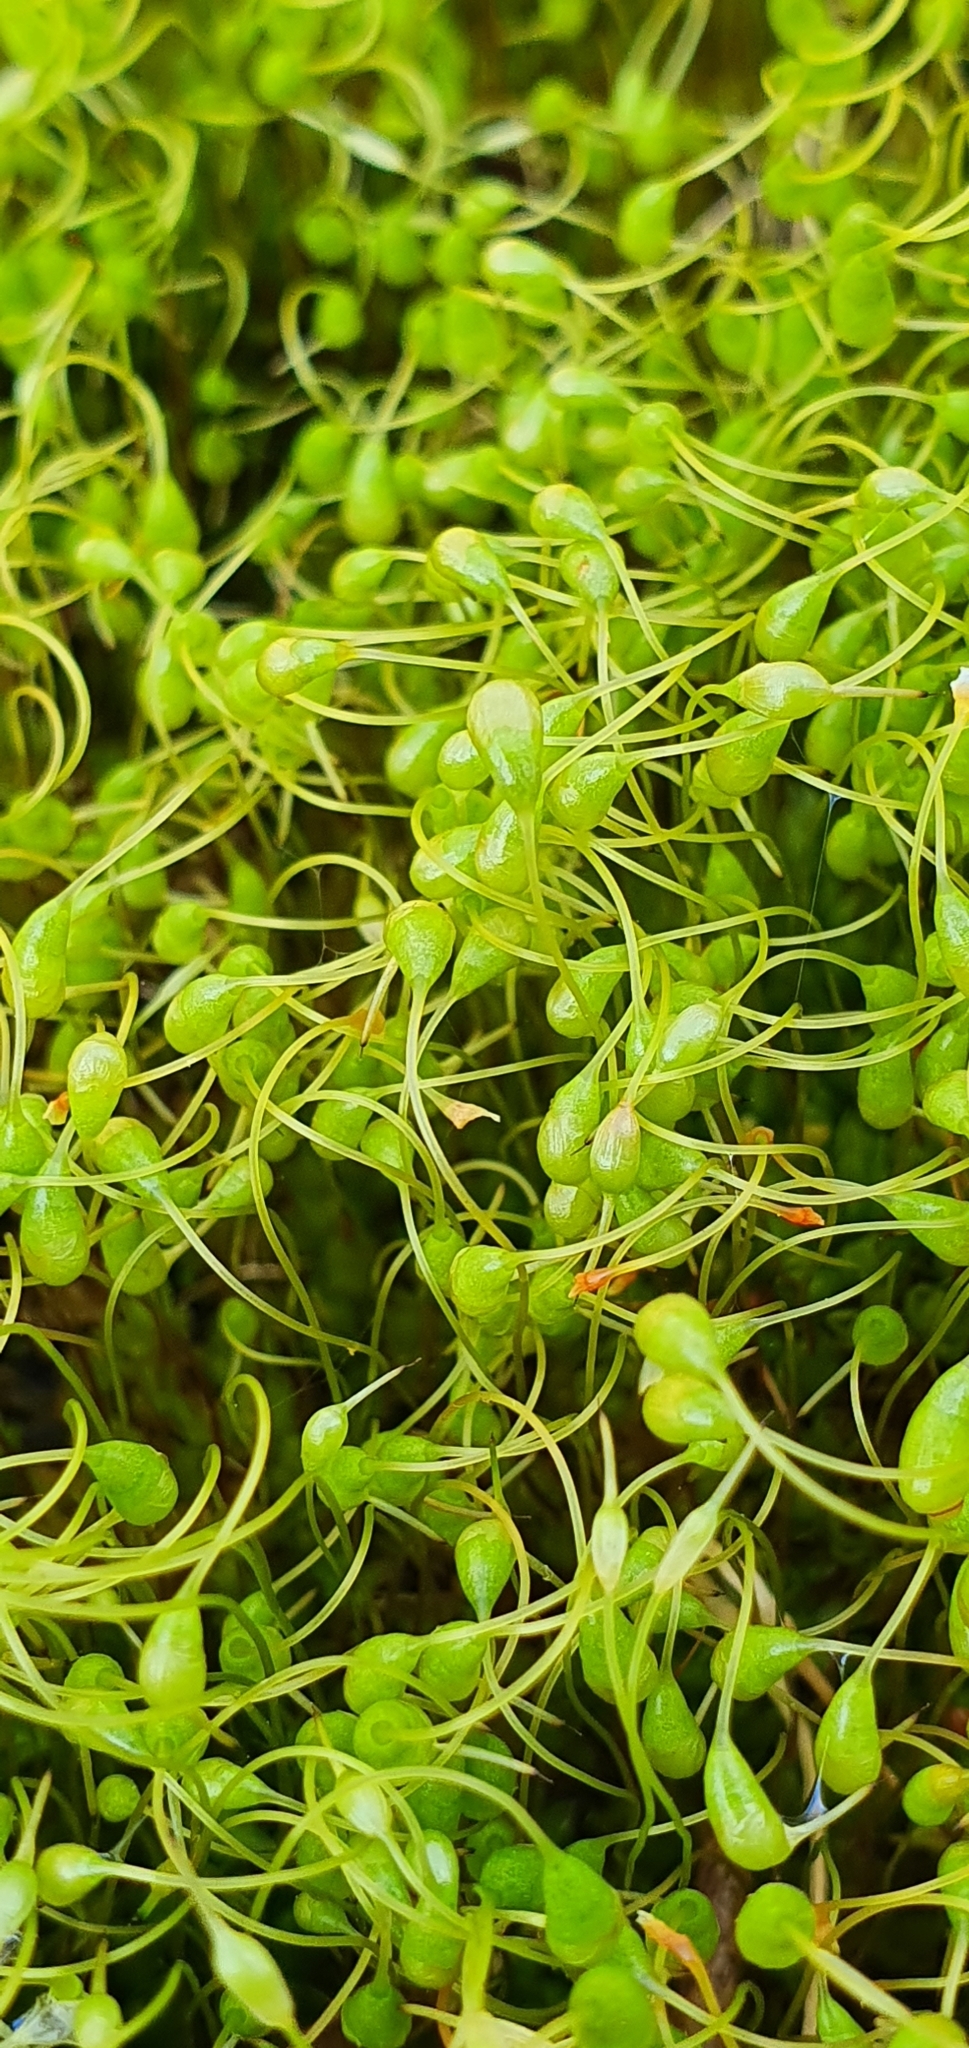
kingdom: Plantae
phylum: Bryophyta
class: Bryopsida
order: Funariales
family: Funariaceae
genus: Funaria
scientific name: Funaria hygrometrica
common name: Common cord moss
